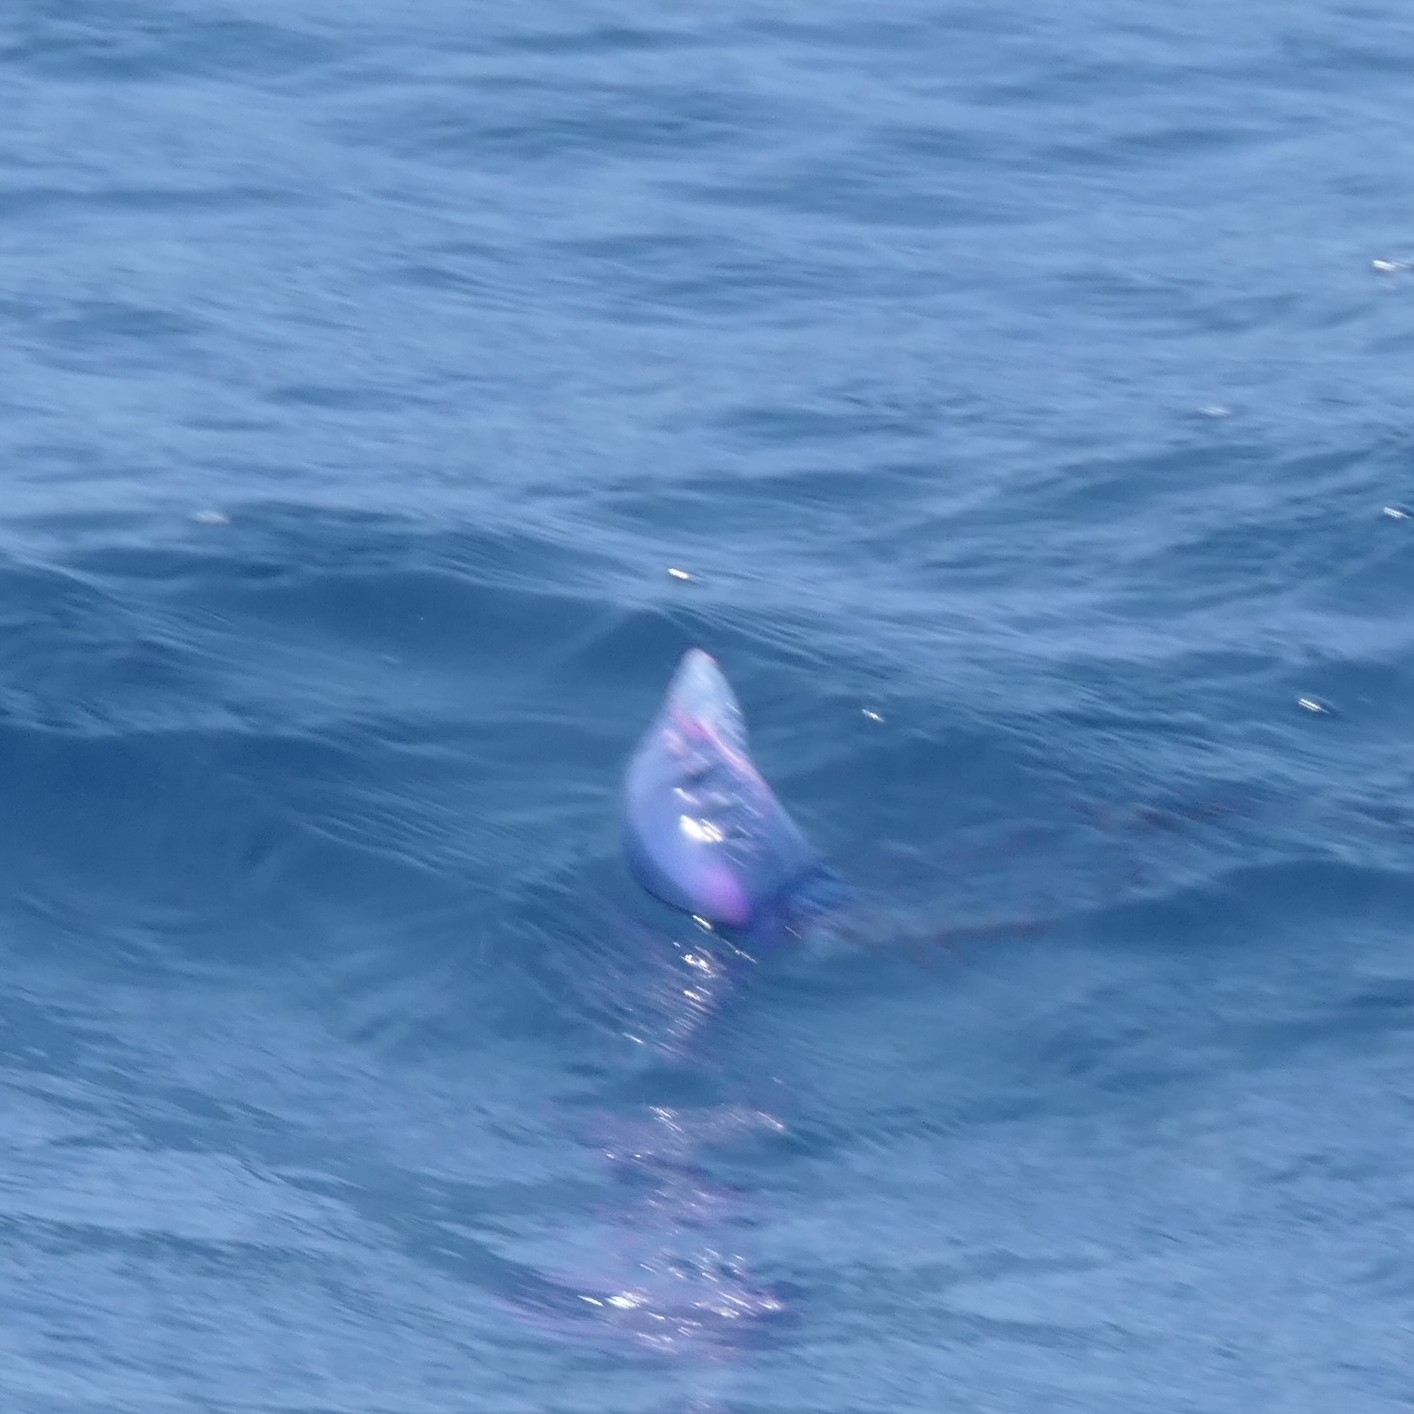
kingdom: Animalia
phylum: Cnidaria
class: Hydrozoa
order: Siphonophorae
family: Physaliidae
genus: Physalia
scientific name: Physalia physalis
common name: Portuguese man-of-war
